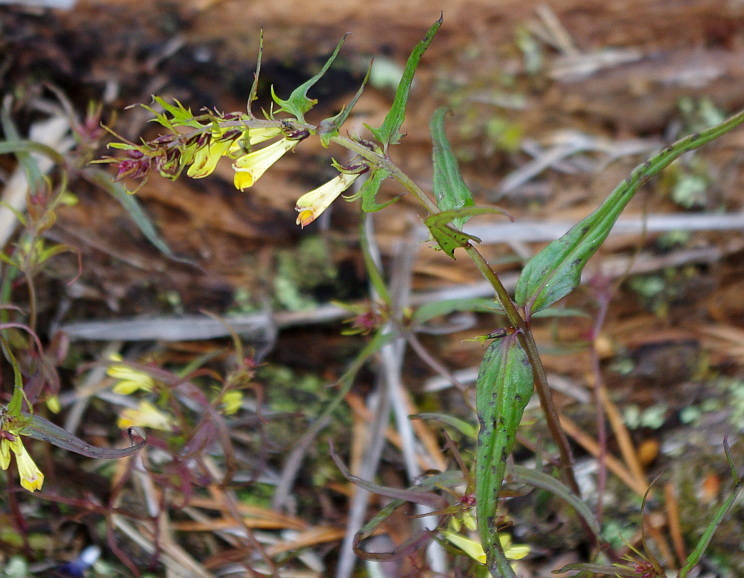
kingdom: Plantae
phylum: Tracheophyta
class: Magnoliopsida
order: Lamiales
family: Orobanchaceae
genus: Melampyrum
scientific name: Melampyrum pratense
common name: Common cow-wheat
